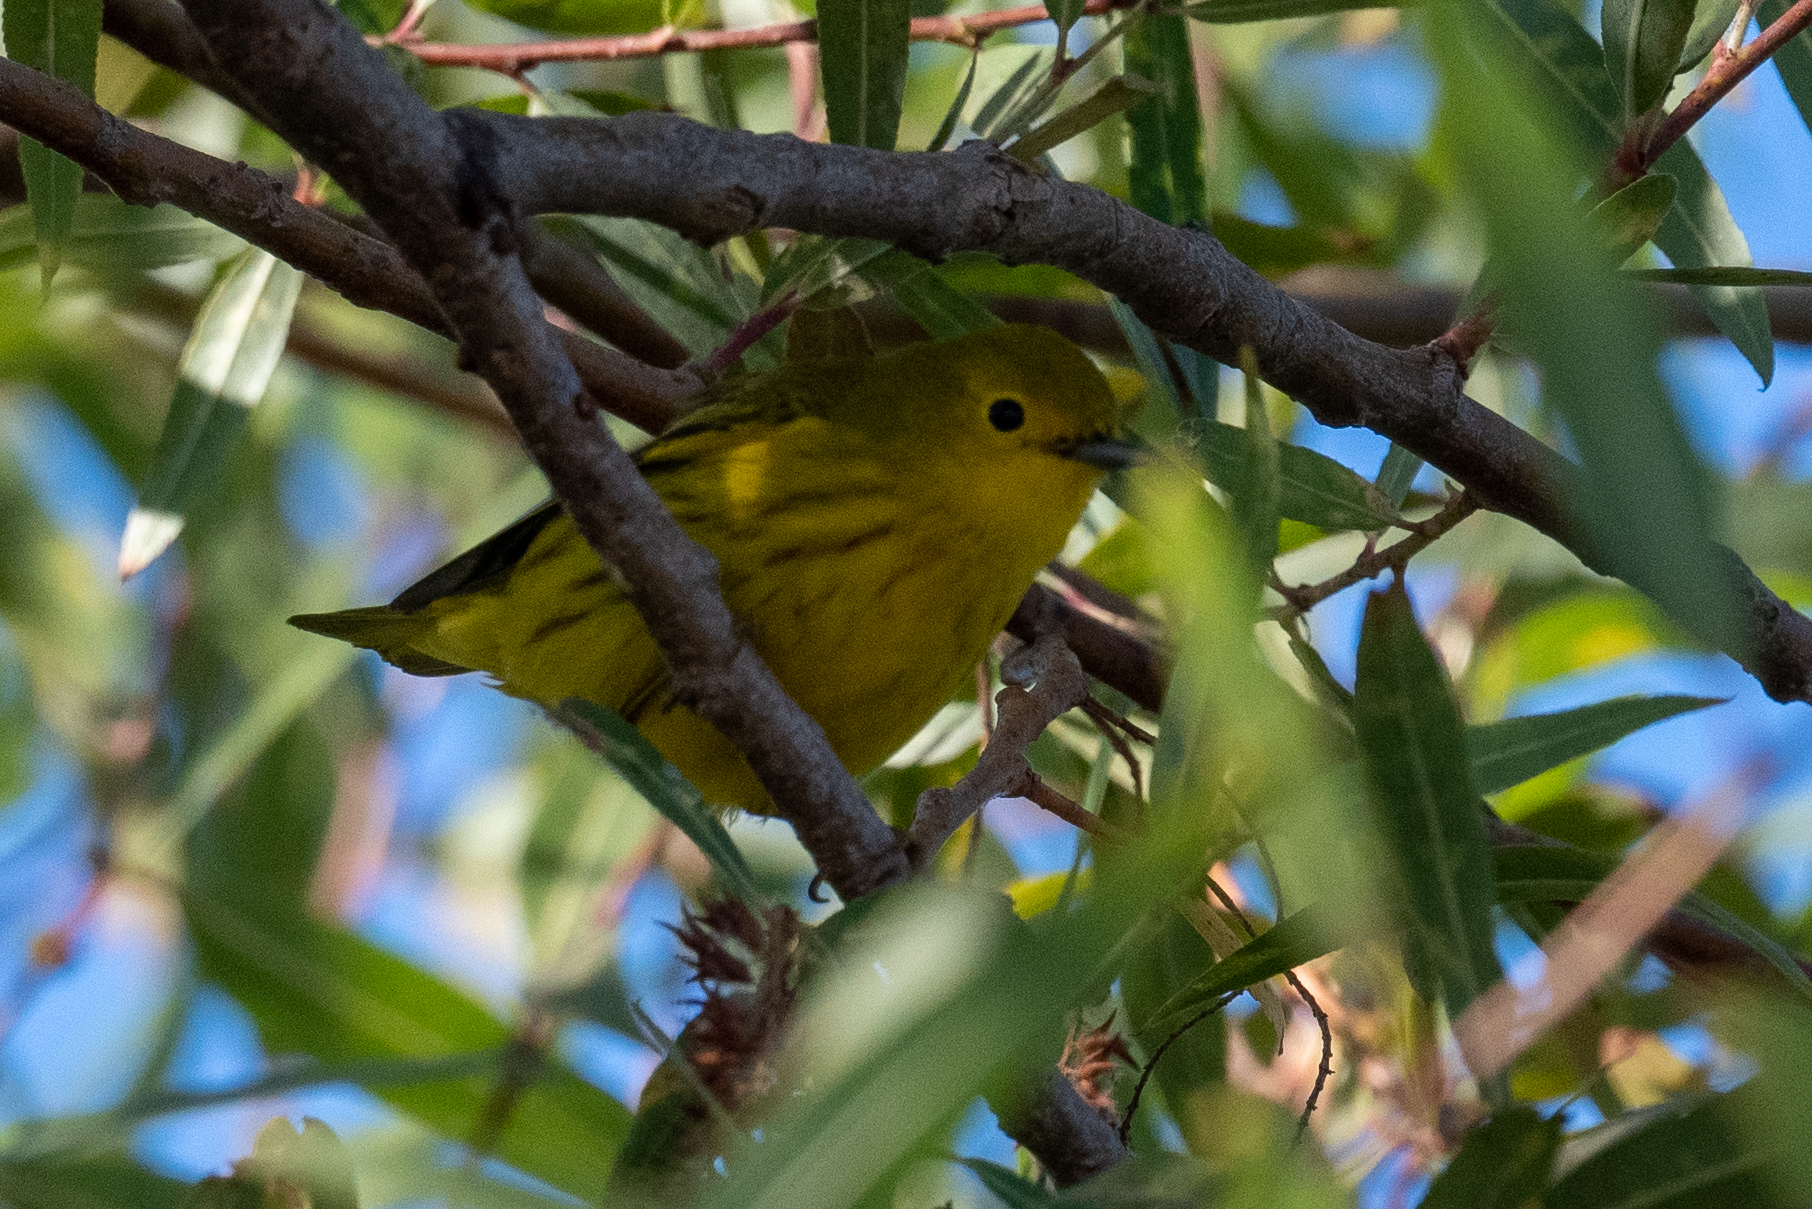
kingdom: Animalia
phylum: Chordata
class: Aves
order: Passeriformes
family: Parulidae
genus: Setophaga
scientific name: Setophaga petechia
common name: Yellow warbler
